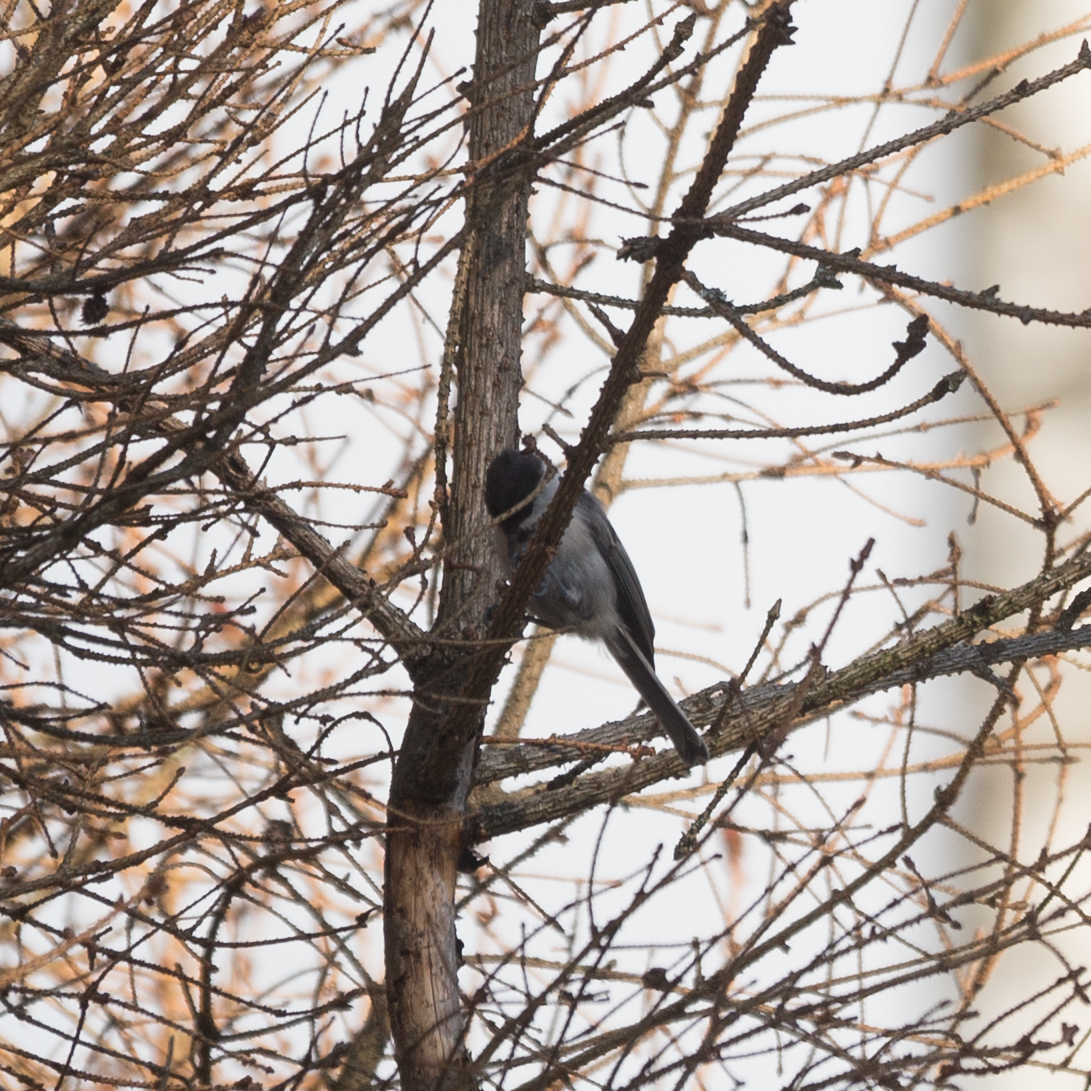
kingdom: Animalia
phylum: Chordata
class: Aves
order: Passeriformes
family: Paridae
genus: Poecile
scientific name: Poecile montanus
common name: Willow tit
